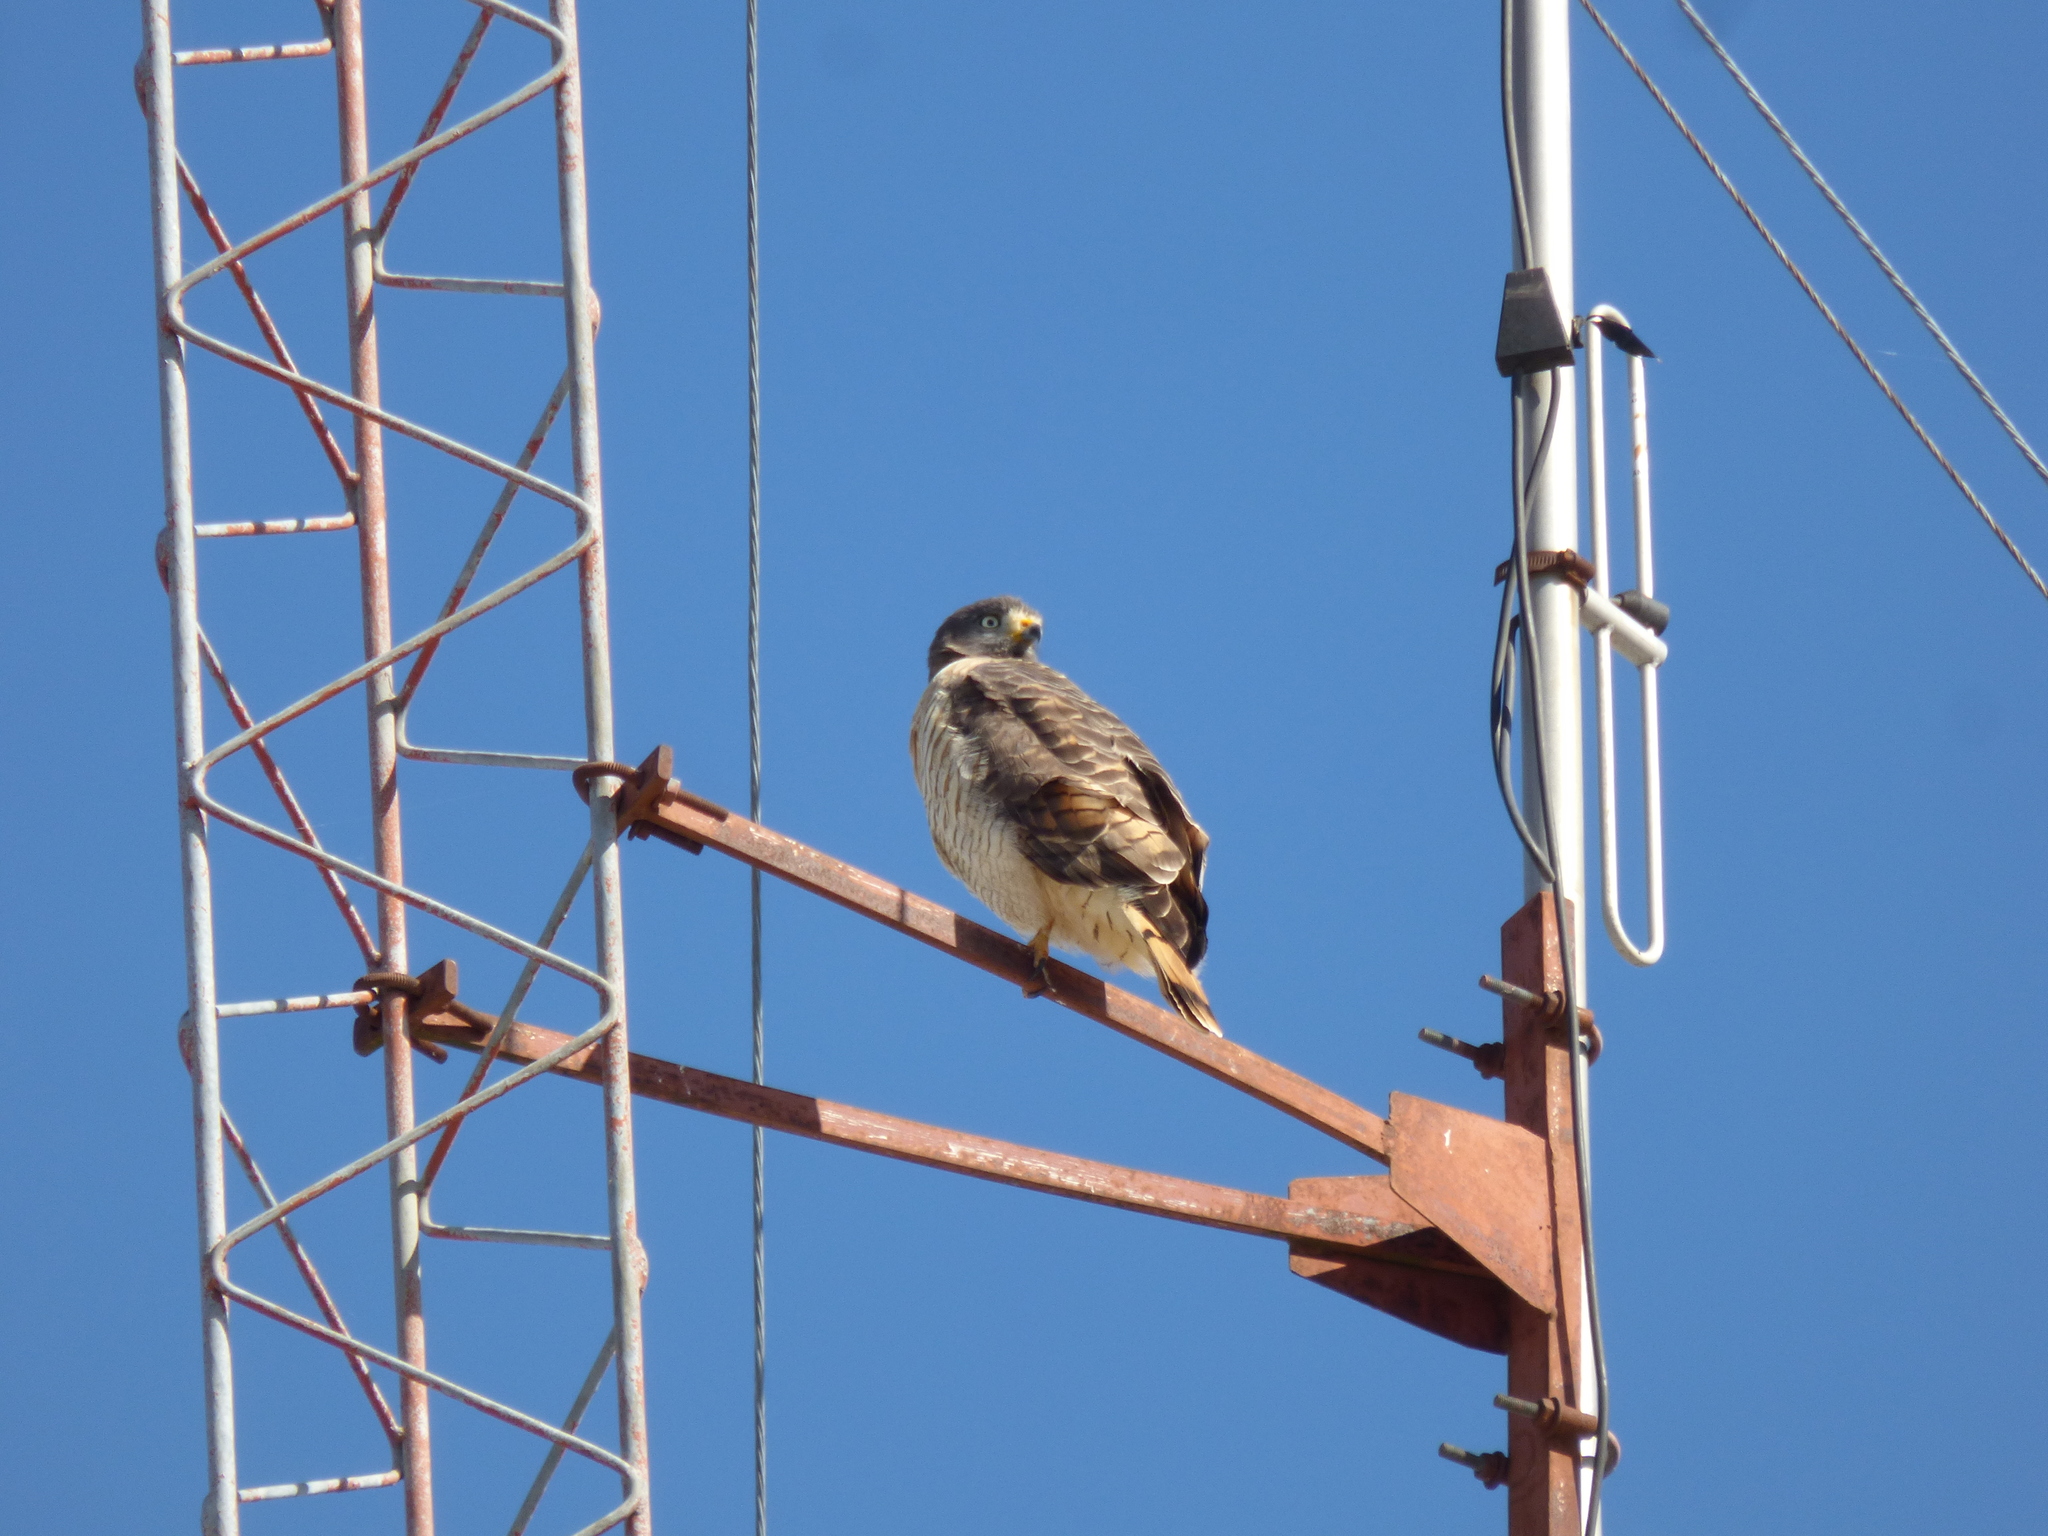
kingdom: Animalia
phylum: Chordata
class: Aves
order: Accipitriformes
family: Accipitridae
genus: Rupornis
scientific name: Rupornis magnirostris
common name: Roadside hawk
